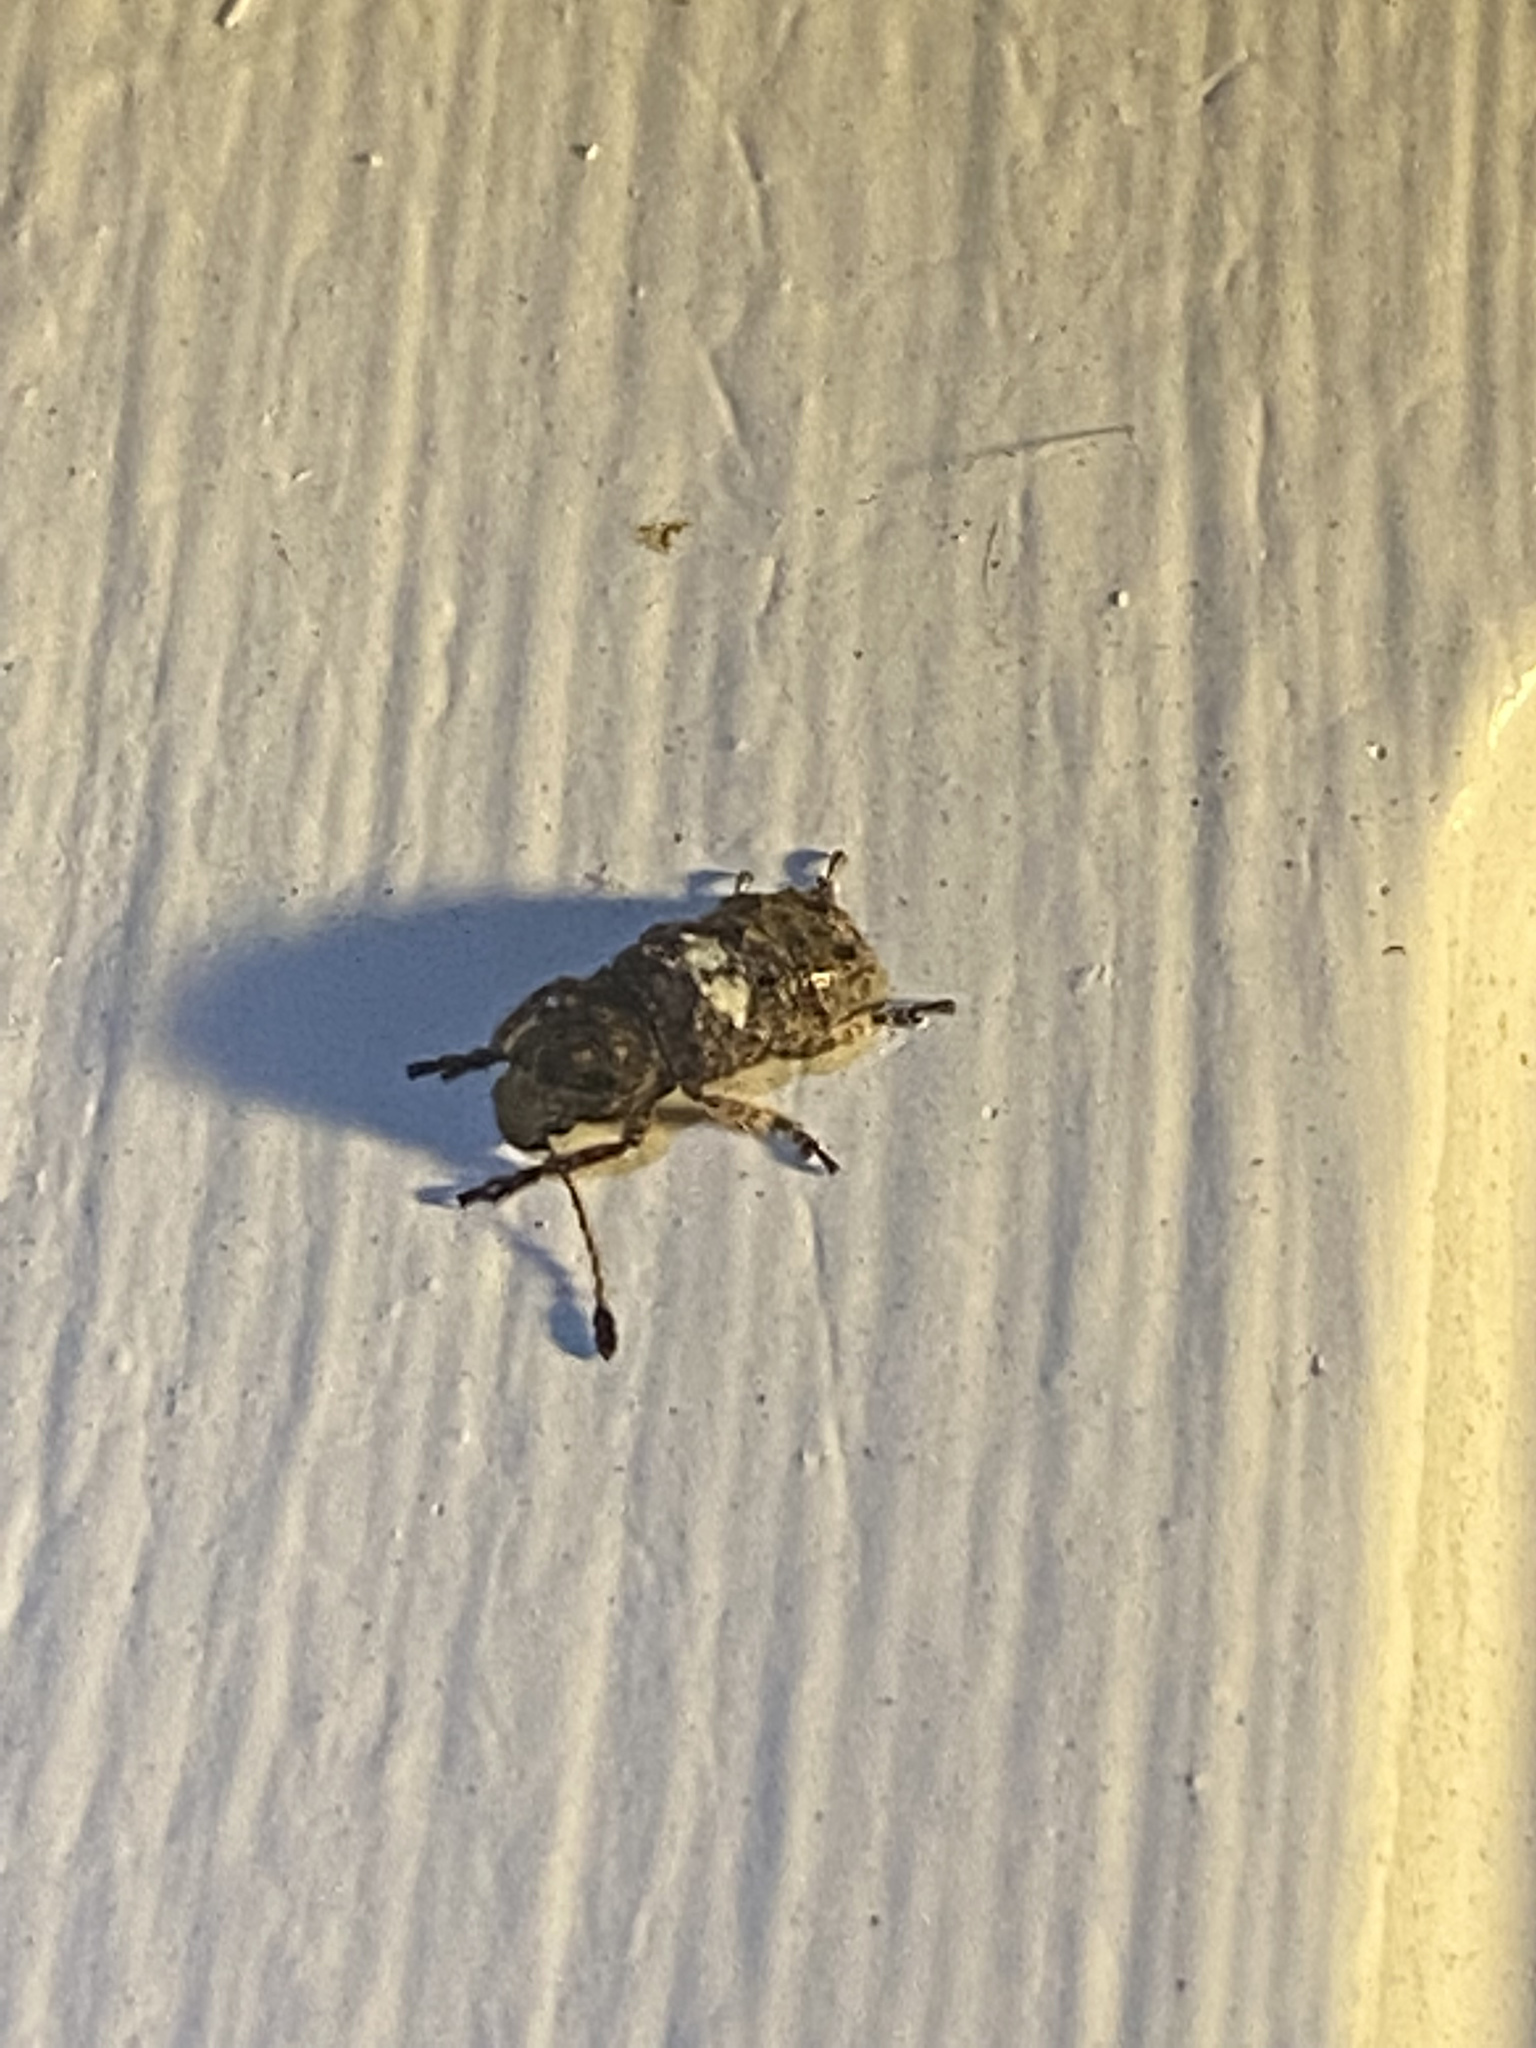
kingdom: Animalia
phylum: Arthropoda
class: Insecta
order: Coleoptera
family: Anthribidae
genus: Toxonotus
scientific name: Toxonotus cornutus
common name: Fungus weevil
